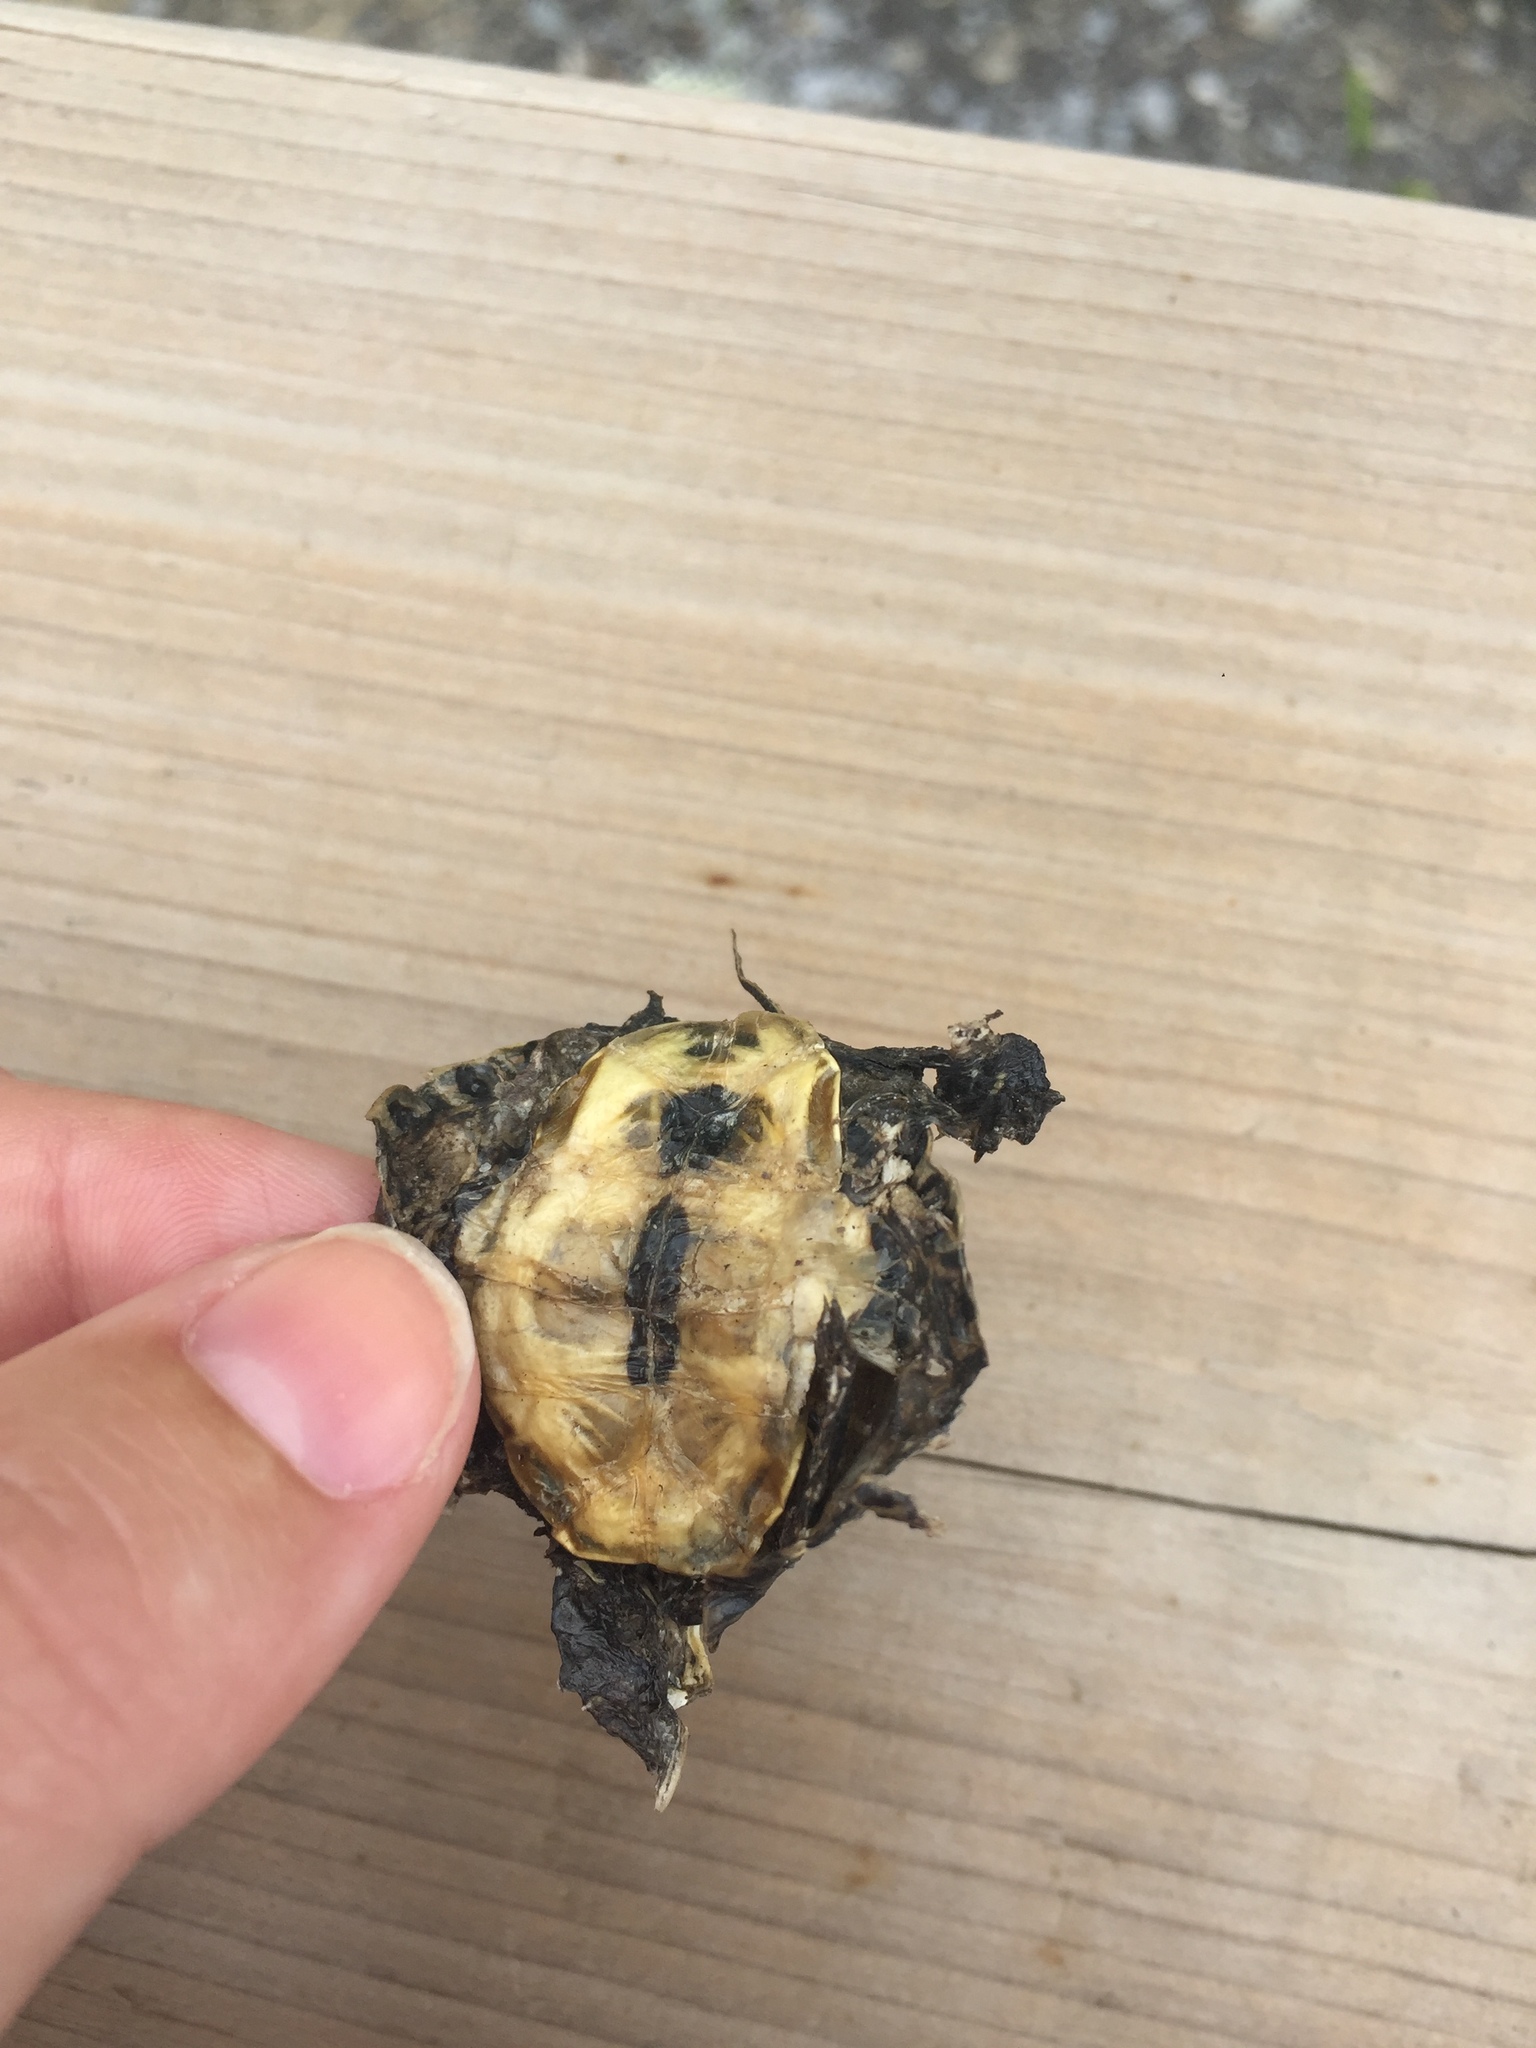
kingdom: Animalia
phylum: Chordata
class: Testudines
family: Emydidae
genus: Chrysemys
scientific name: Chrysemys picta
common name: Painted turtle
